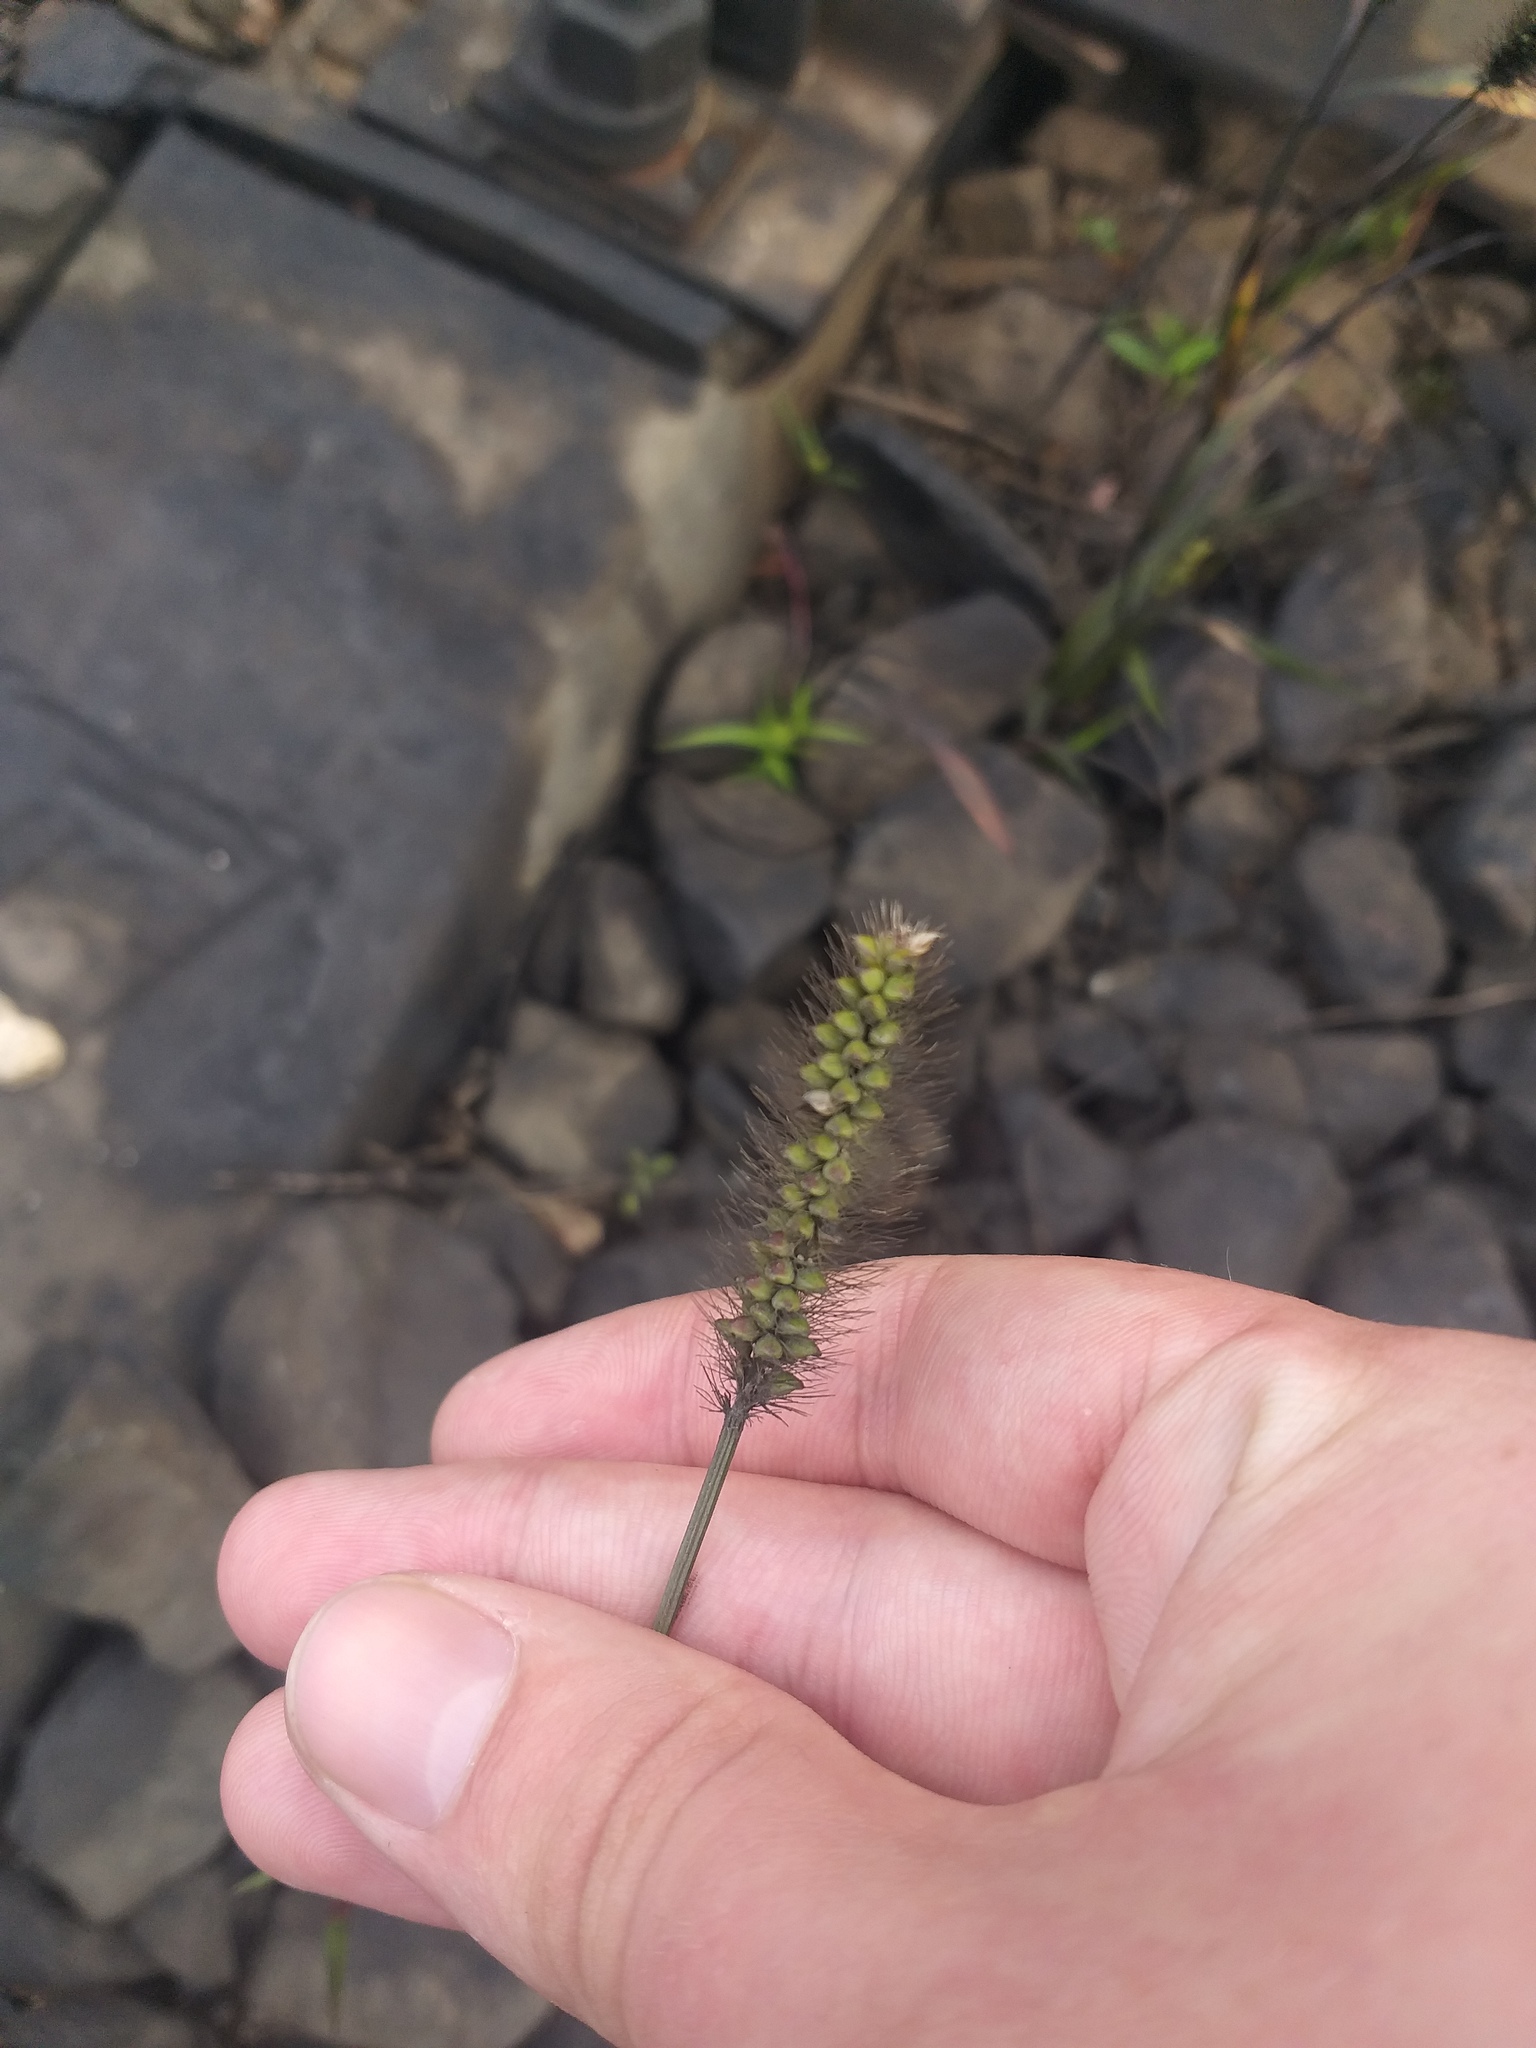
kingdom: Plantae
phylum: Tracheophyta
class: Liliopsida
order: Poales
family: Poaceae
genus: Setaria
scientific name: Setaria pumila
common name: Yellow bristle-grass
